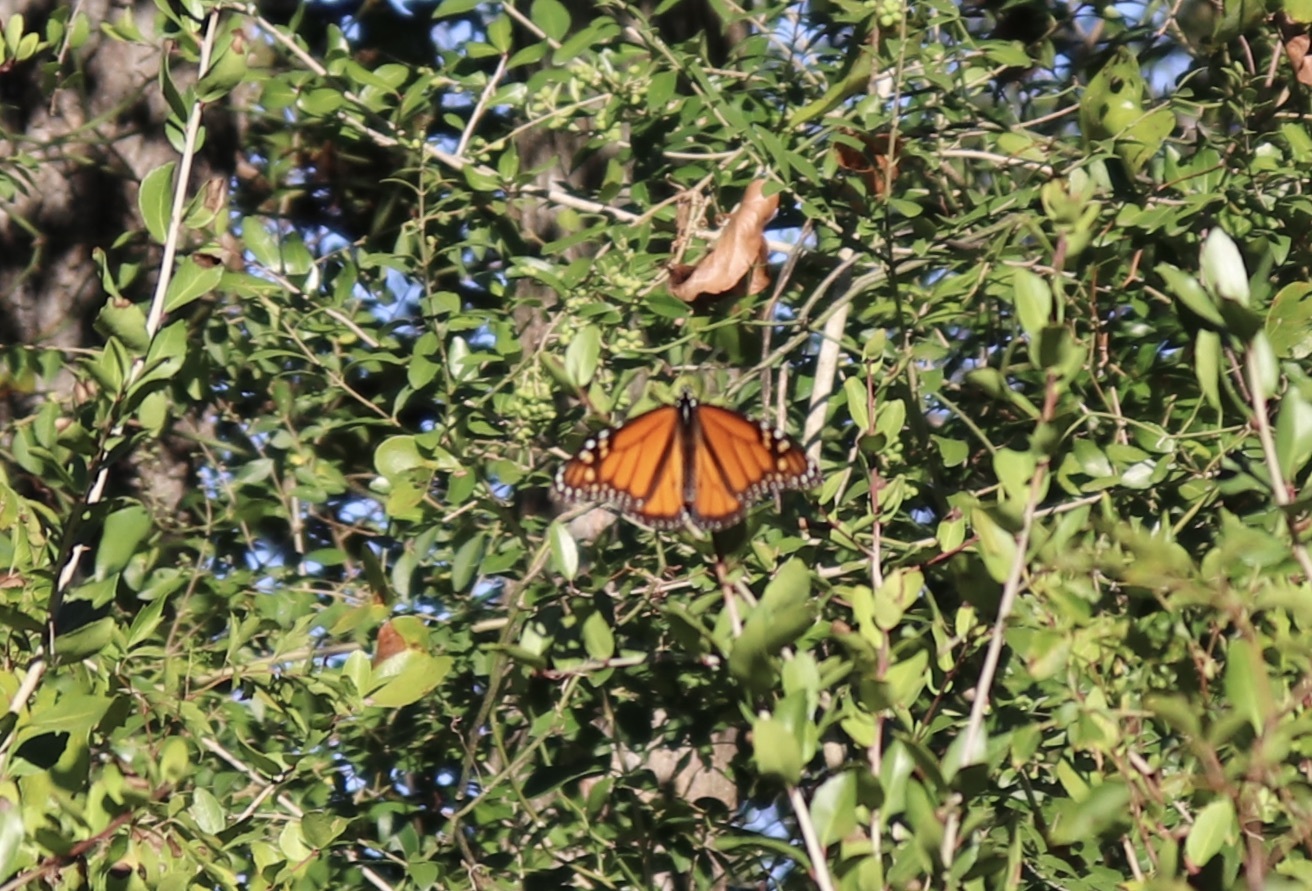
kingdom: Animalia
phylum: Arthropoda
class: Insecta
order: Lepidoptera
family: Nymphalidae
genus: Danaus
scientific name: Danaus plexippus
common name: Monarch
